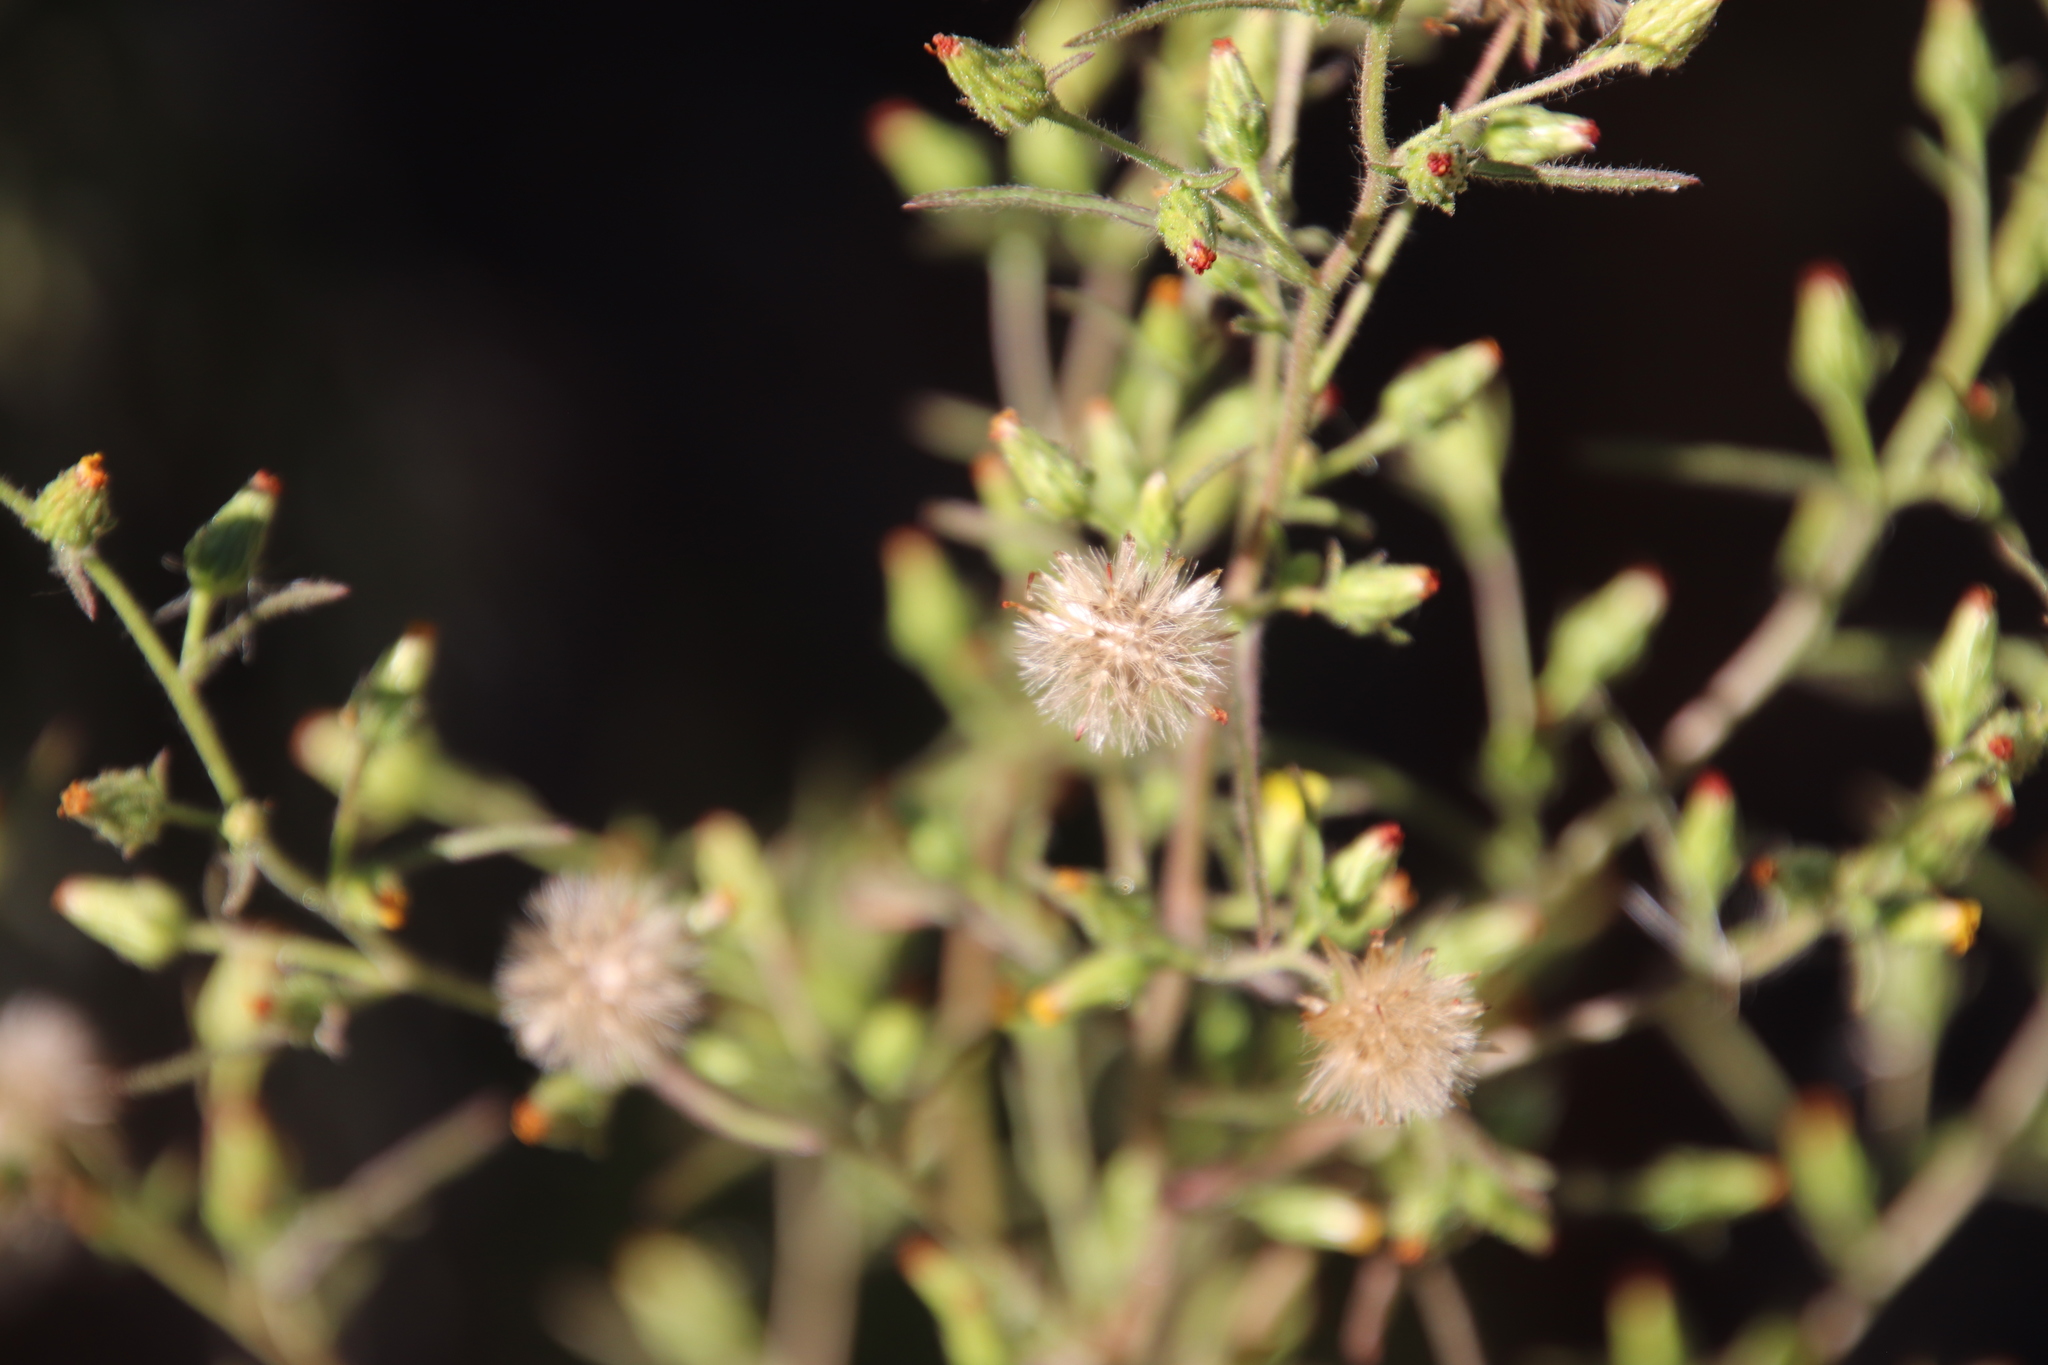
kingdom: Plantae
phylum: Tracheophyta
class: Magnoliopsida
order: Asterales
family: Asteraceae
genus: Dittrichia
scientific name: Dittrichia graveolens
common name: Stinking fleabane
